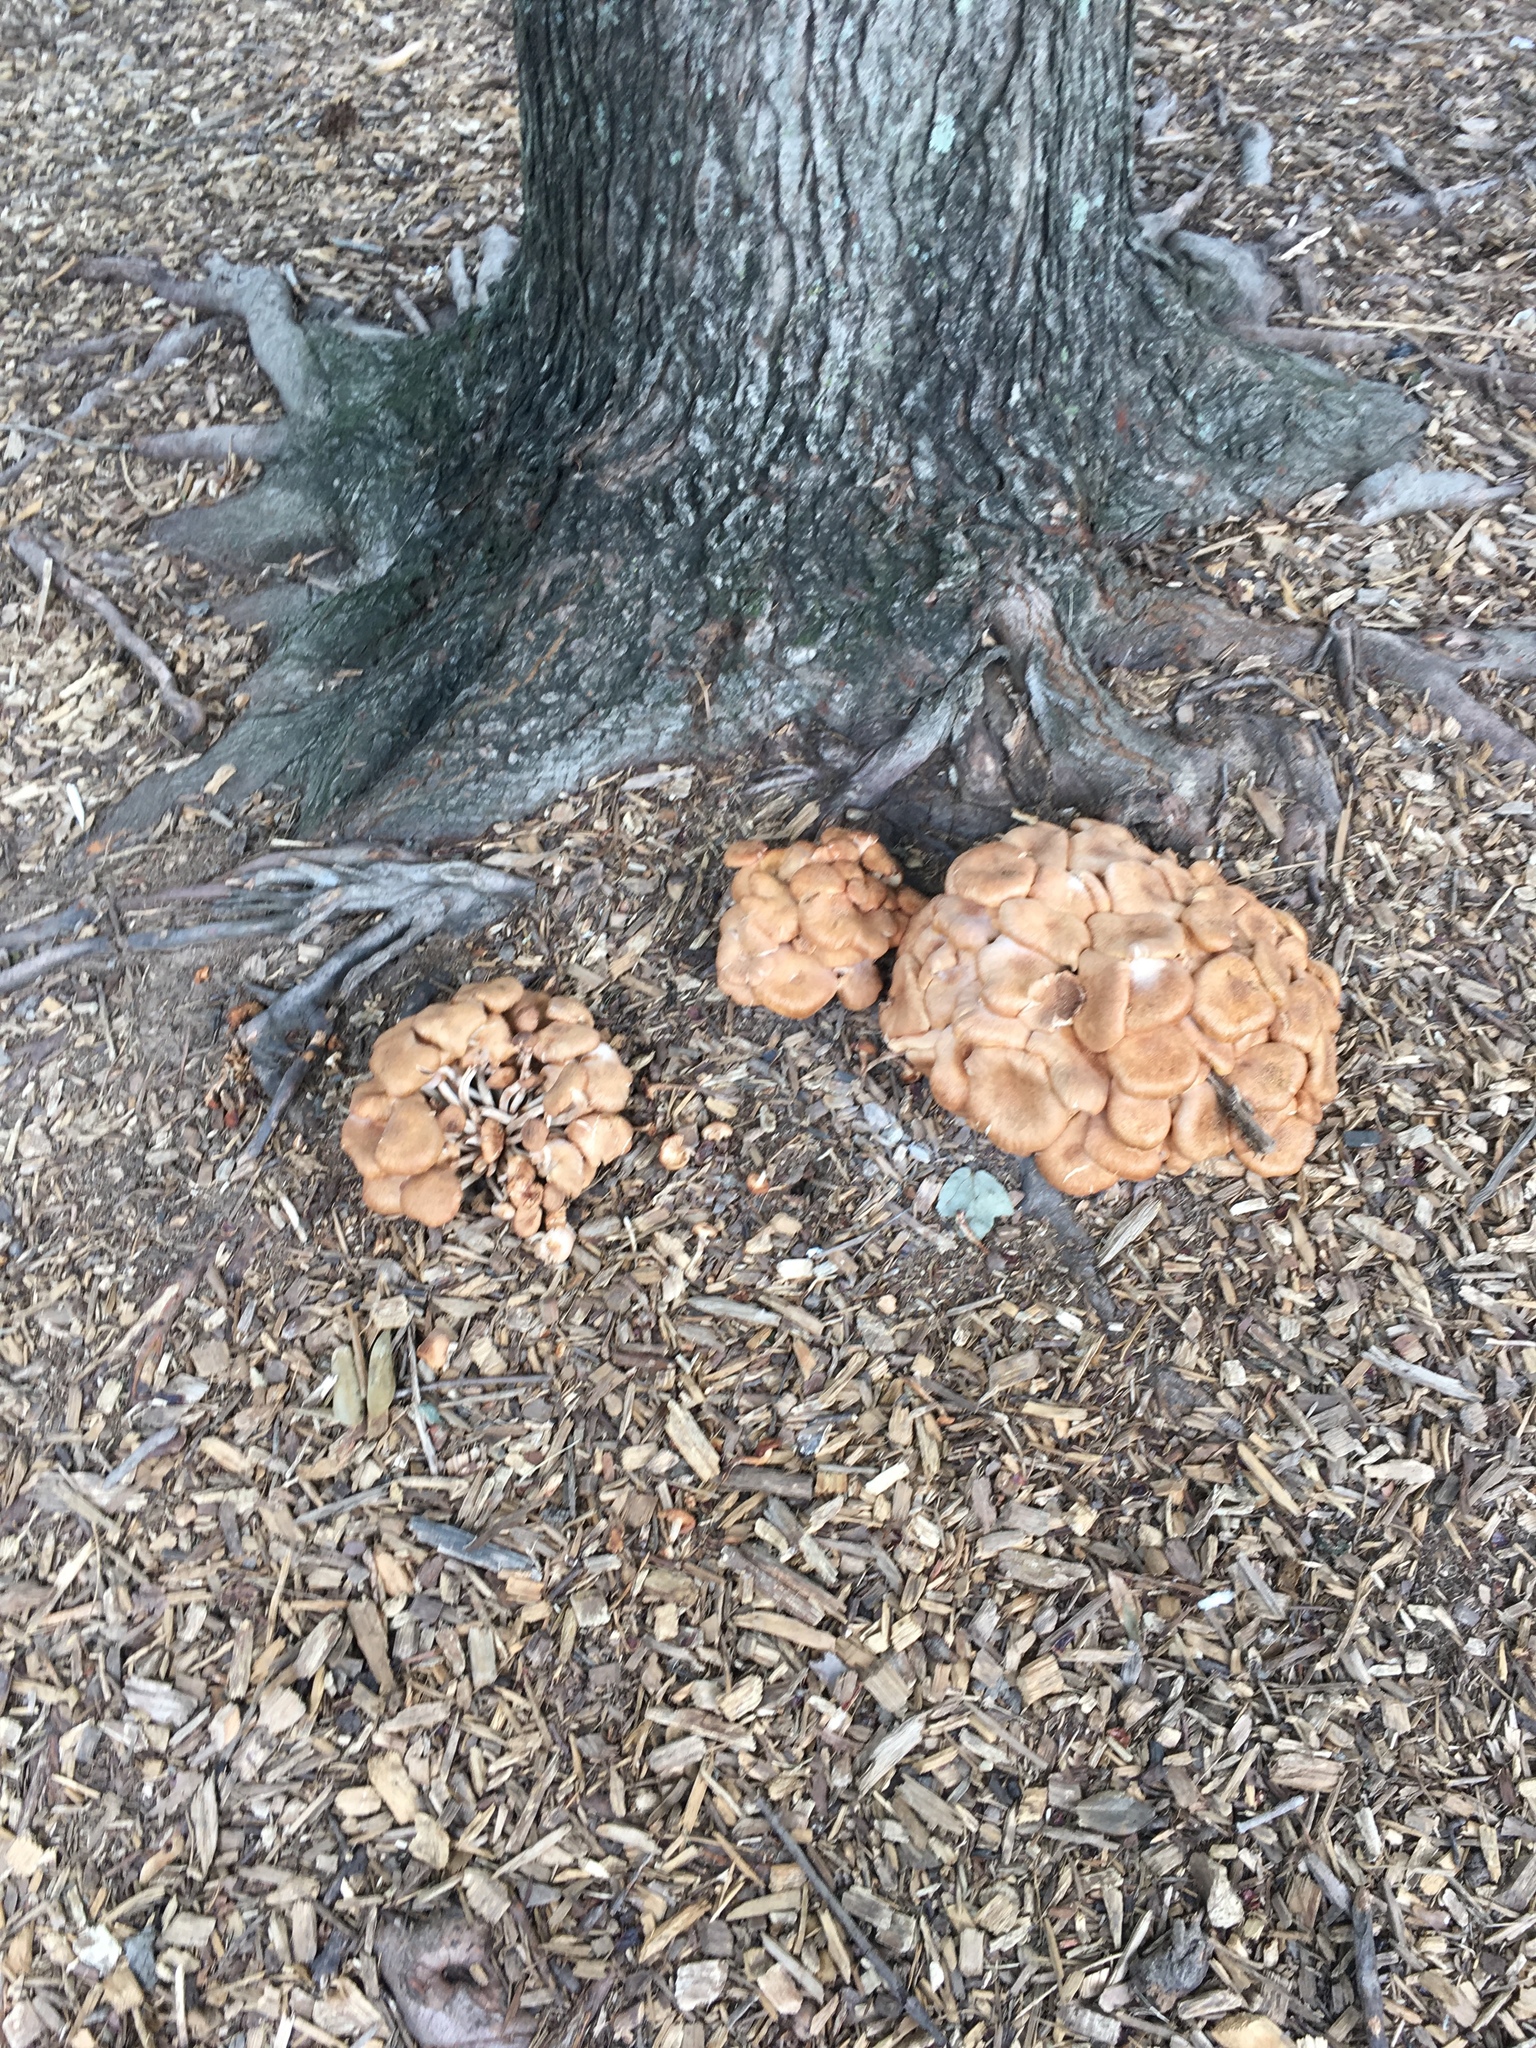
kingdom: Fungi
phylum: Basidiomycota
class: Agaricomycetes
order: Agaricales
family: Physalacriaceae
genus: Desarmillaria
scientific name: Desarmillaria caespitosa
